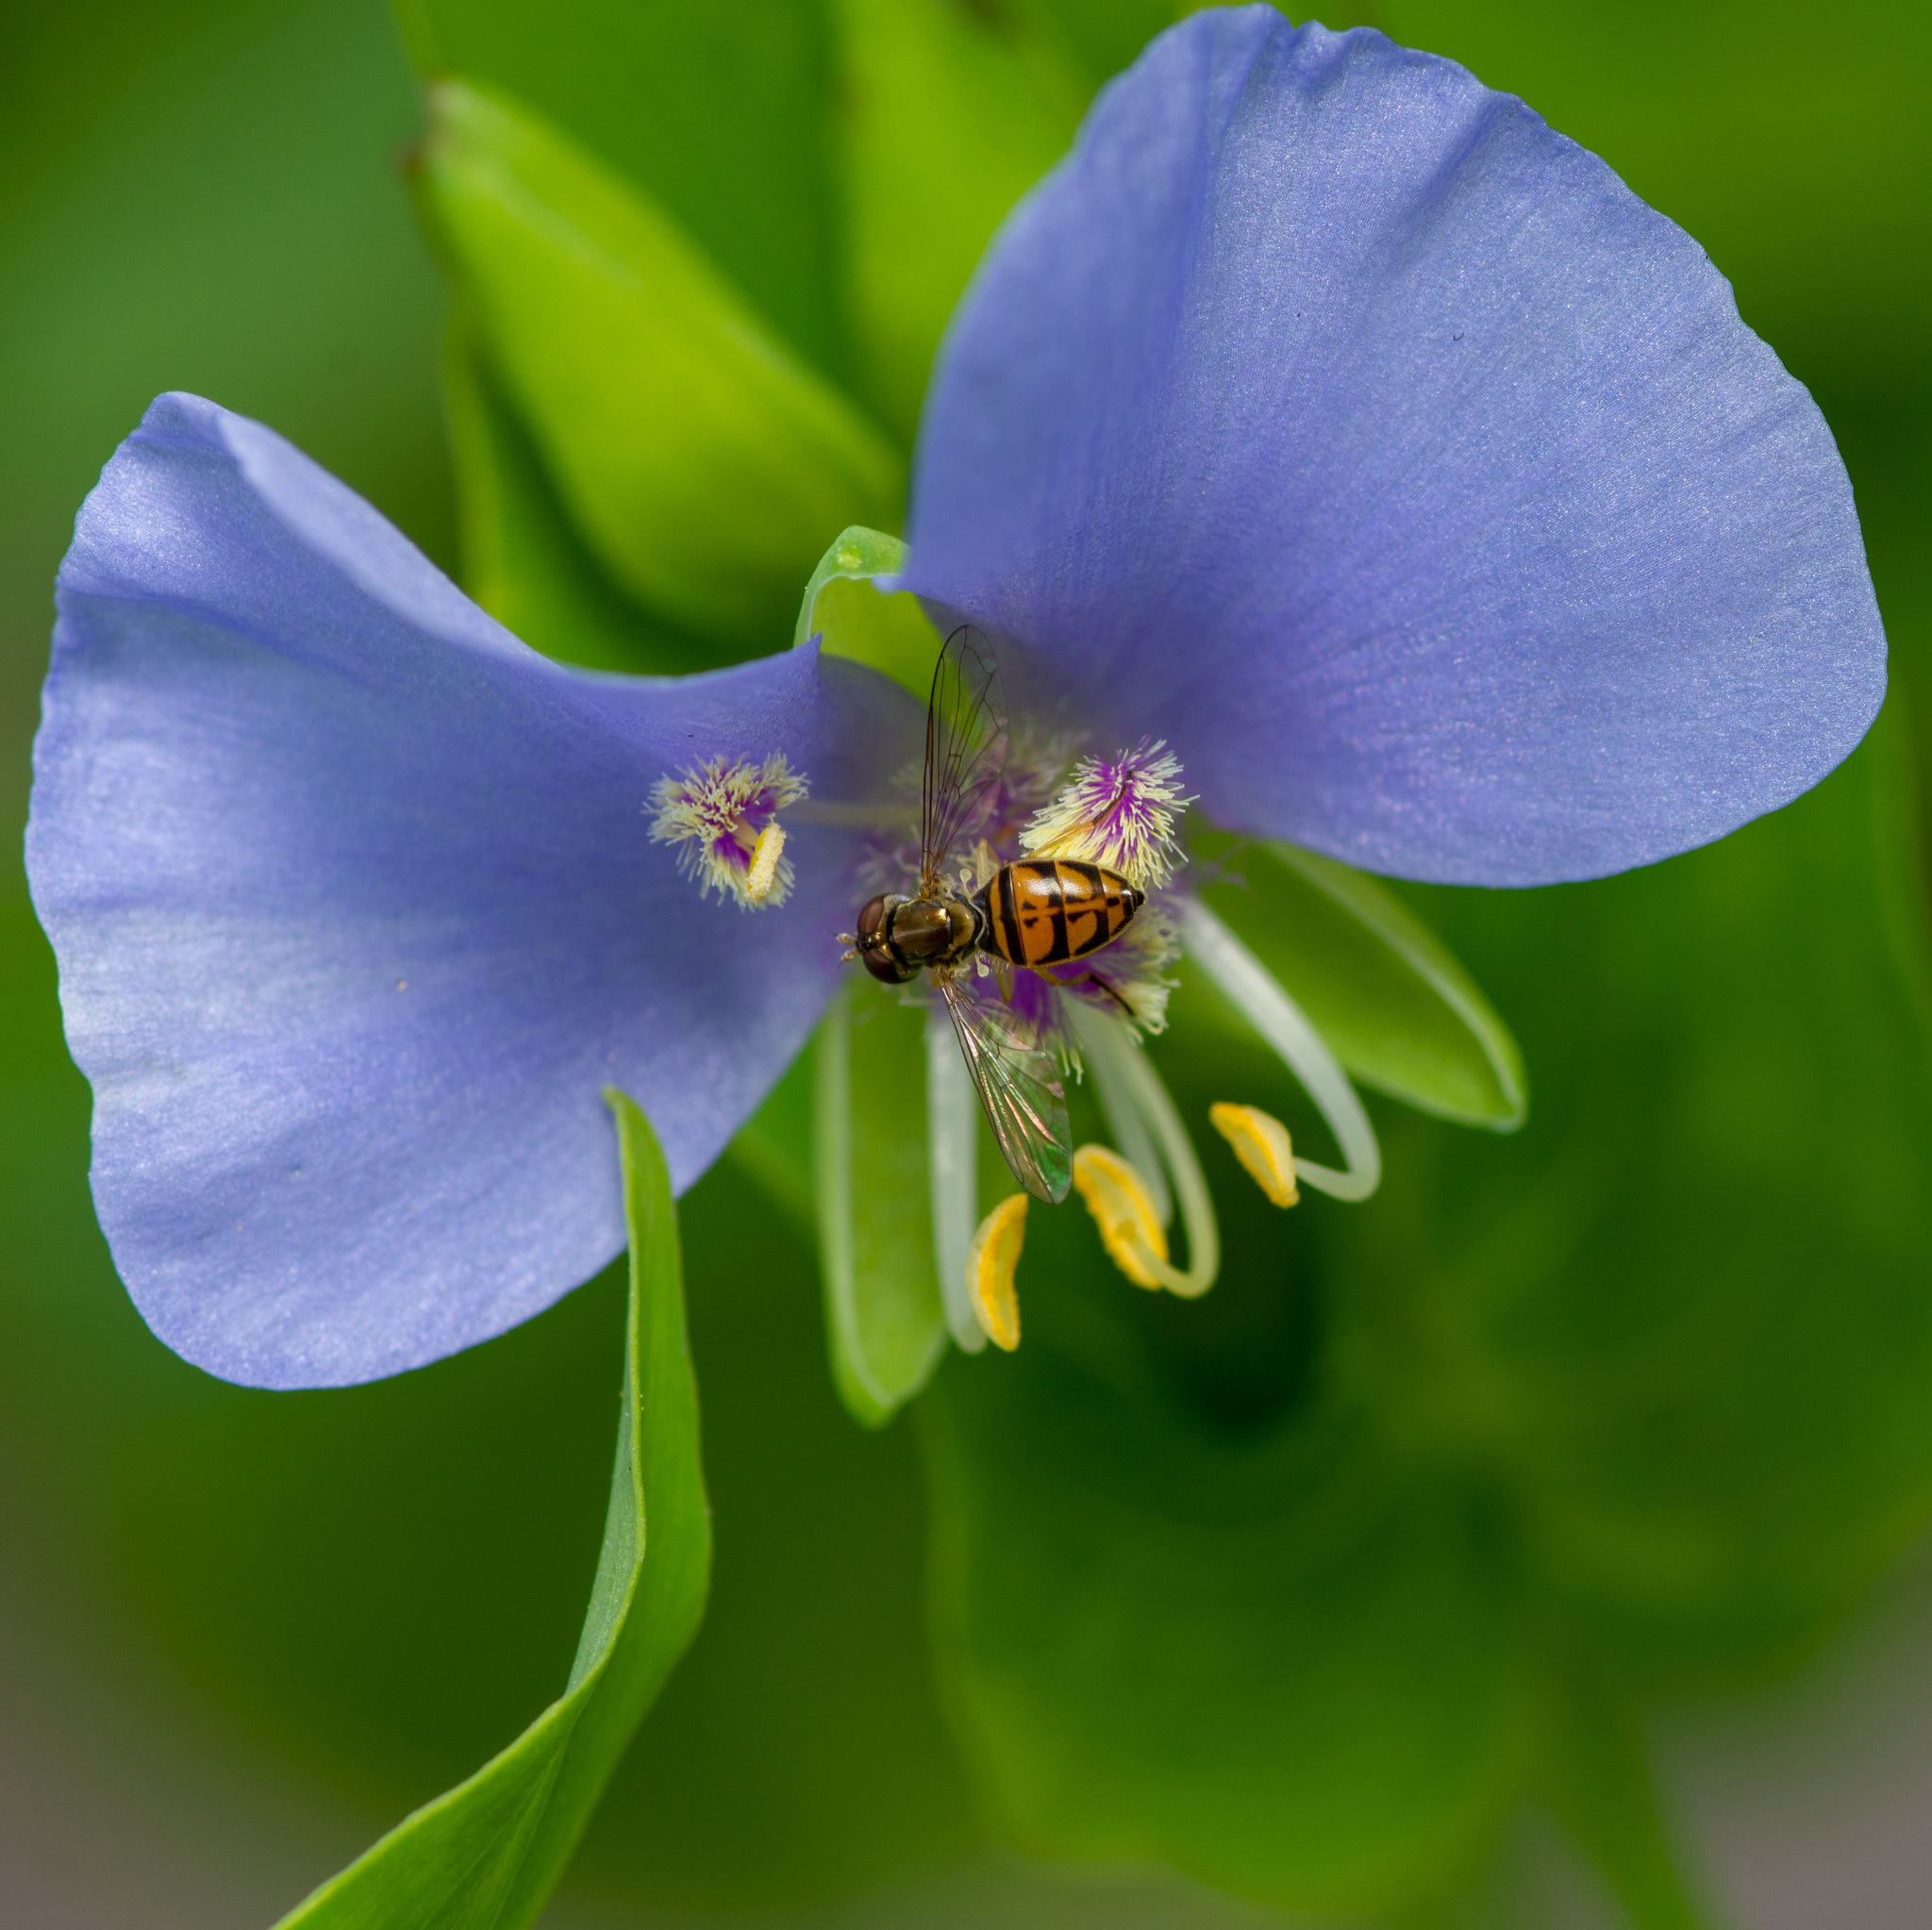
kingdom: Animalia
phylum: Arthropoda
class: Insecta
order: Diptera
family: Syrphidae
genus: Toxomerus
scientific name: Toxomerus marginatus
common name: Syrphid fly
